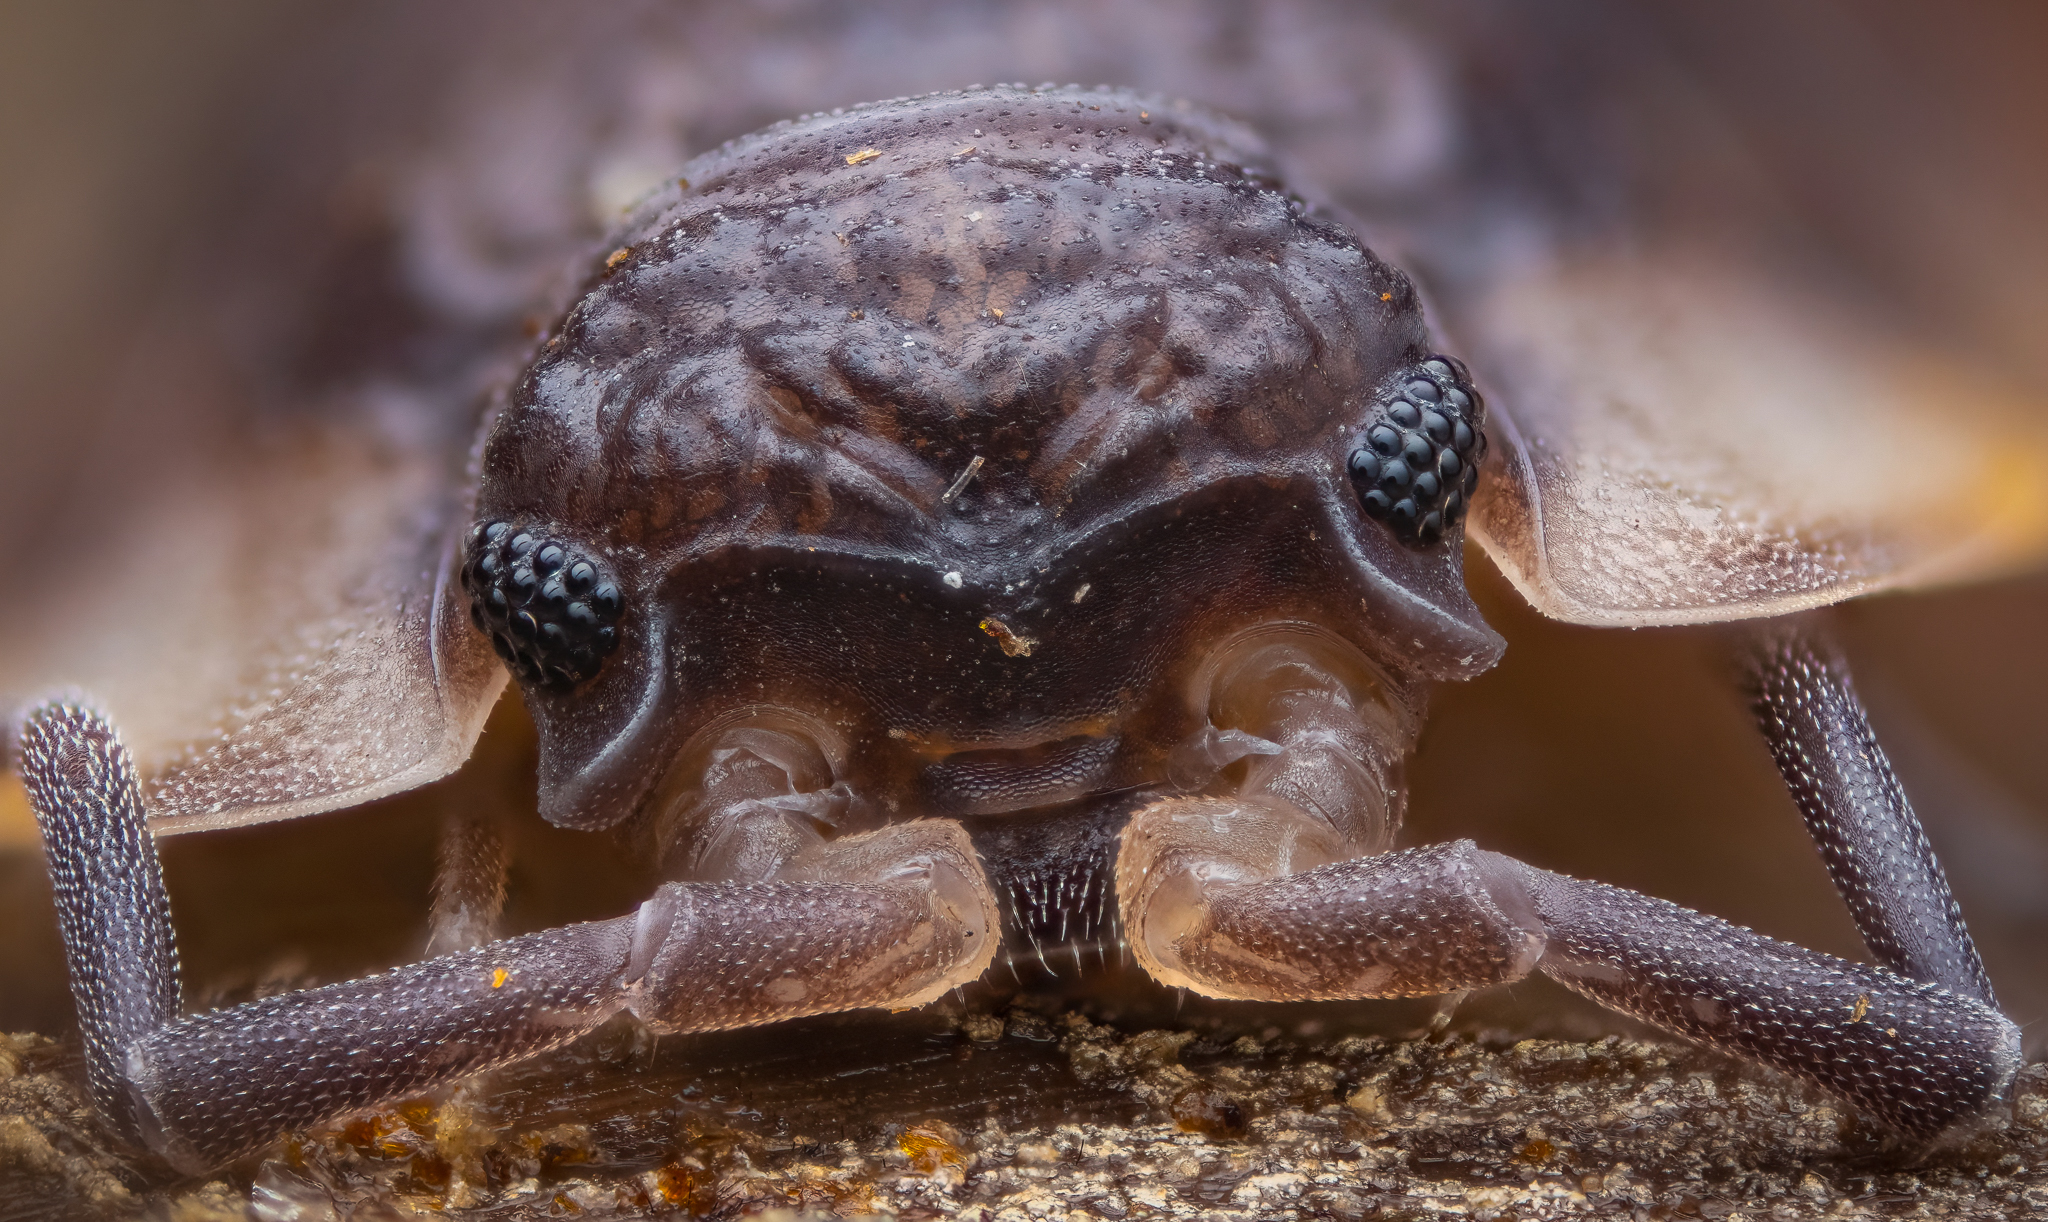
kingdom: Animalia
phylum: Arthropoda
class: Malacostraca
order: Isopoda
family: Oniscidae
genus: Oniscus
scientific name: Oniscus asellus
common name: Common shiny woodlouse
